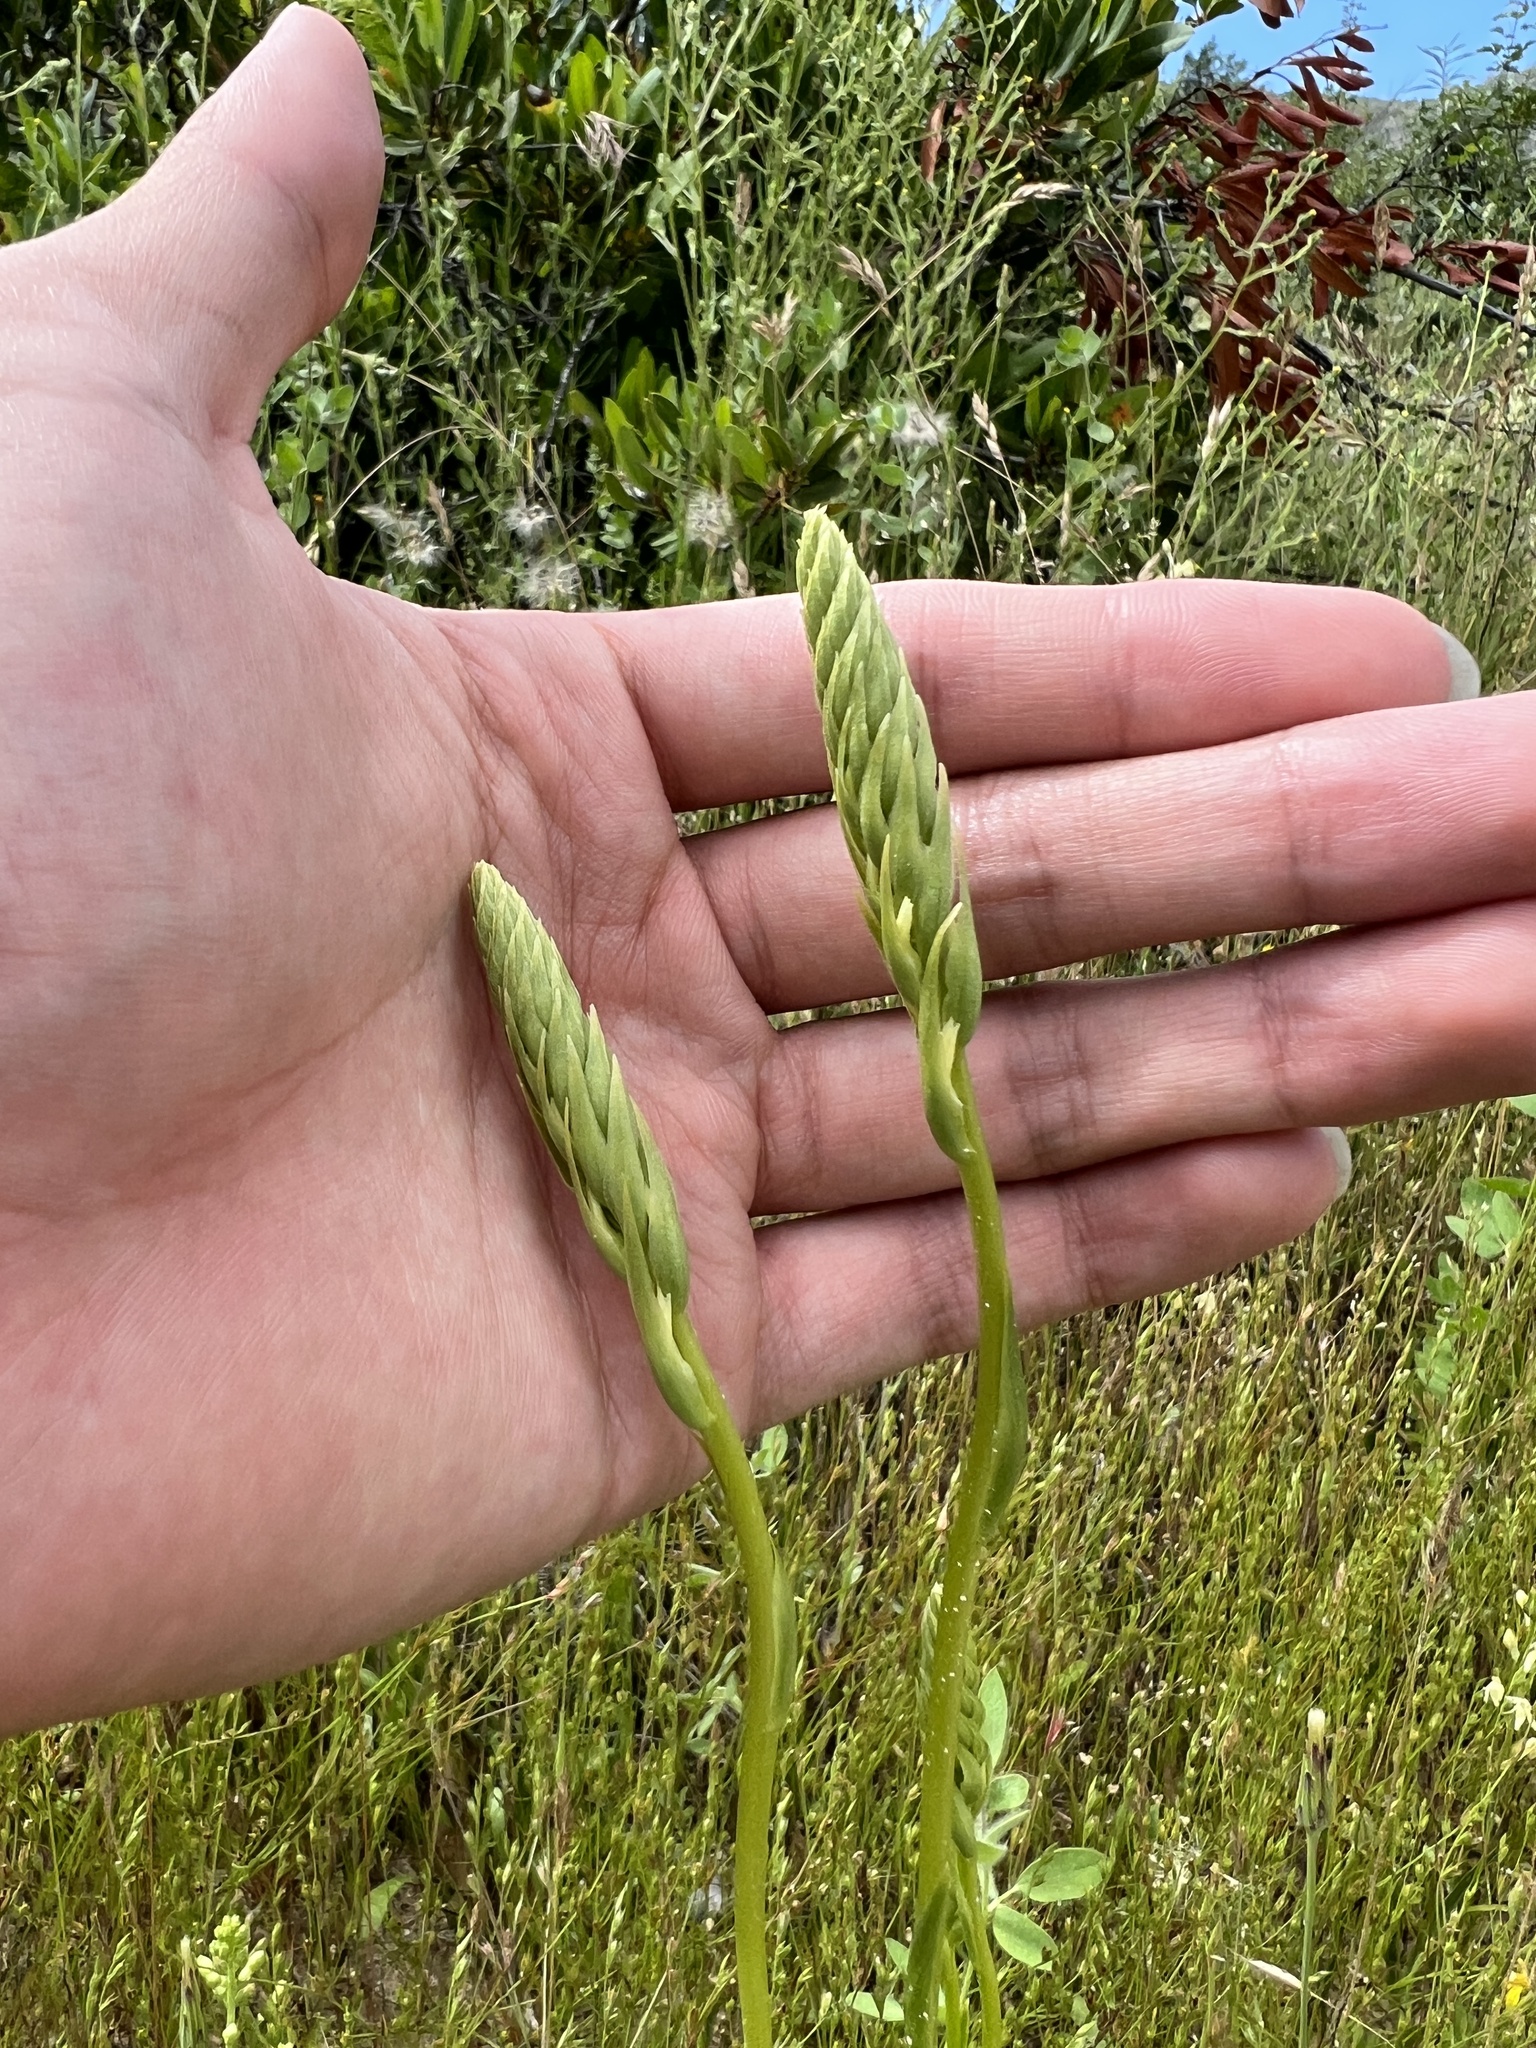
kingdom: Plantae
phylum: Tracheophyta
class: Liliopsida
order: Asparagales
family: Orchidaceae
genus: Spiranthes
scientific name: Spiranthes porrifolia
